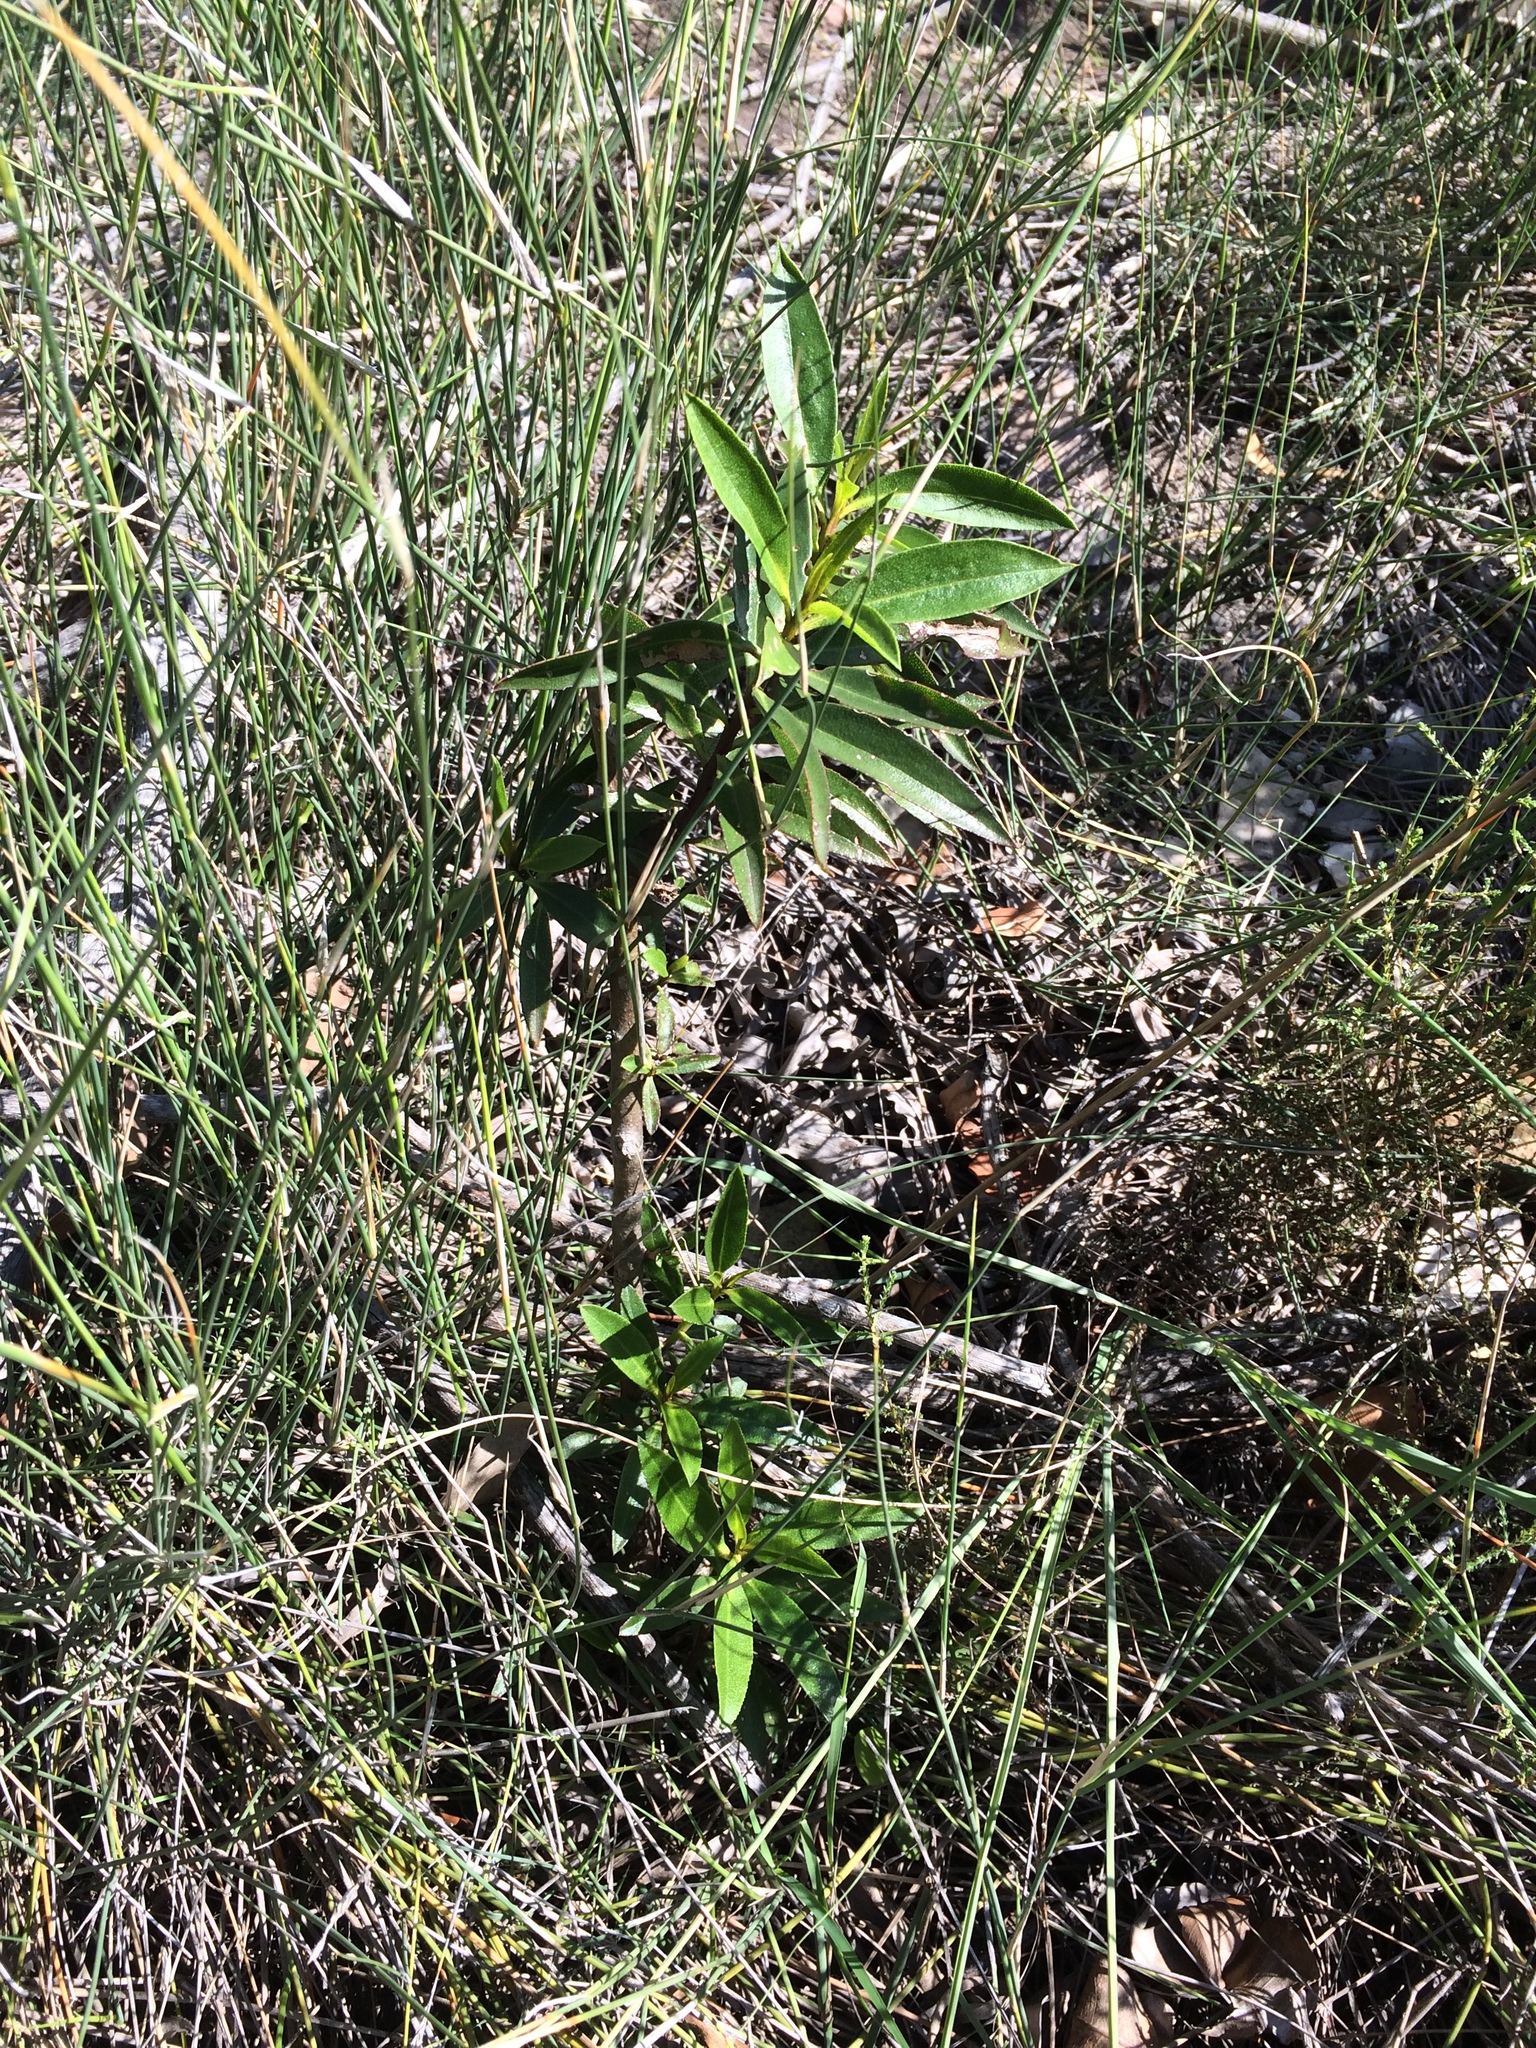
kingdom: Plantae
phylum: Tracheophyta
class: Magnoliopsida
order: Lamiales
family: Scrophulariaceae
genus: Myoporum
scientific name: Myoporum laetum
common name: Ngaio tree
